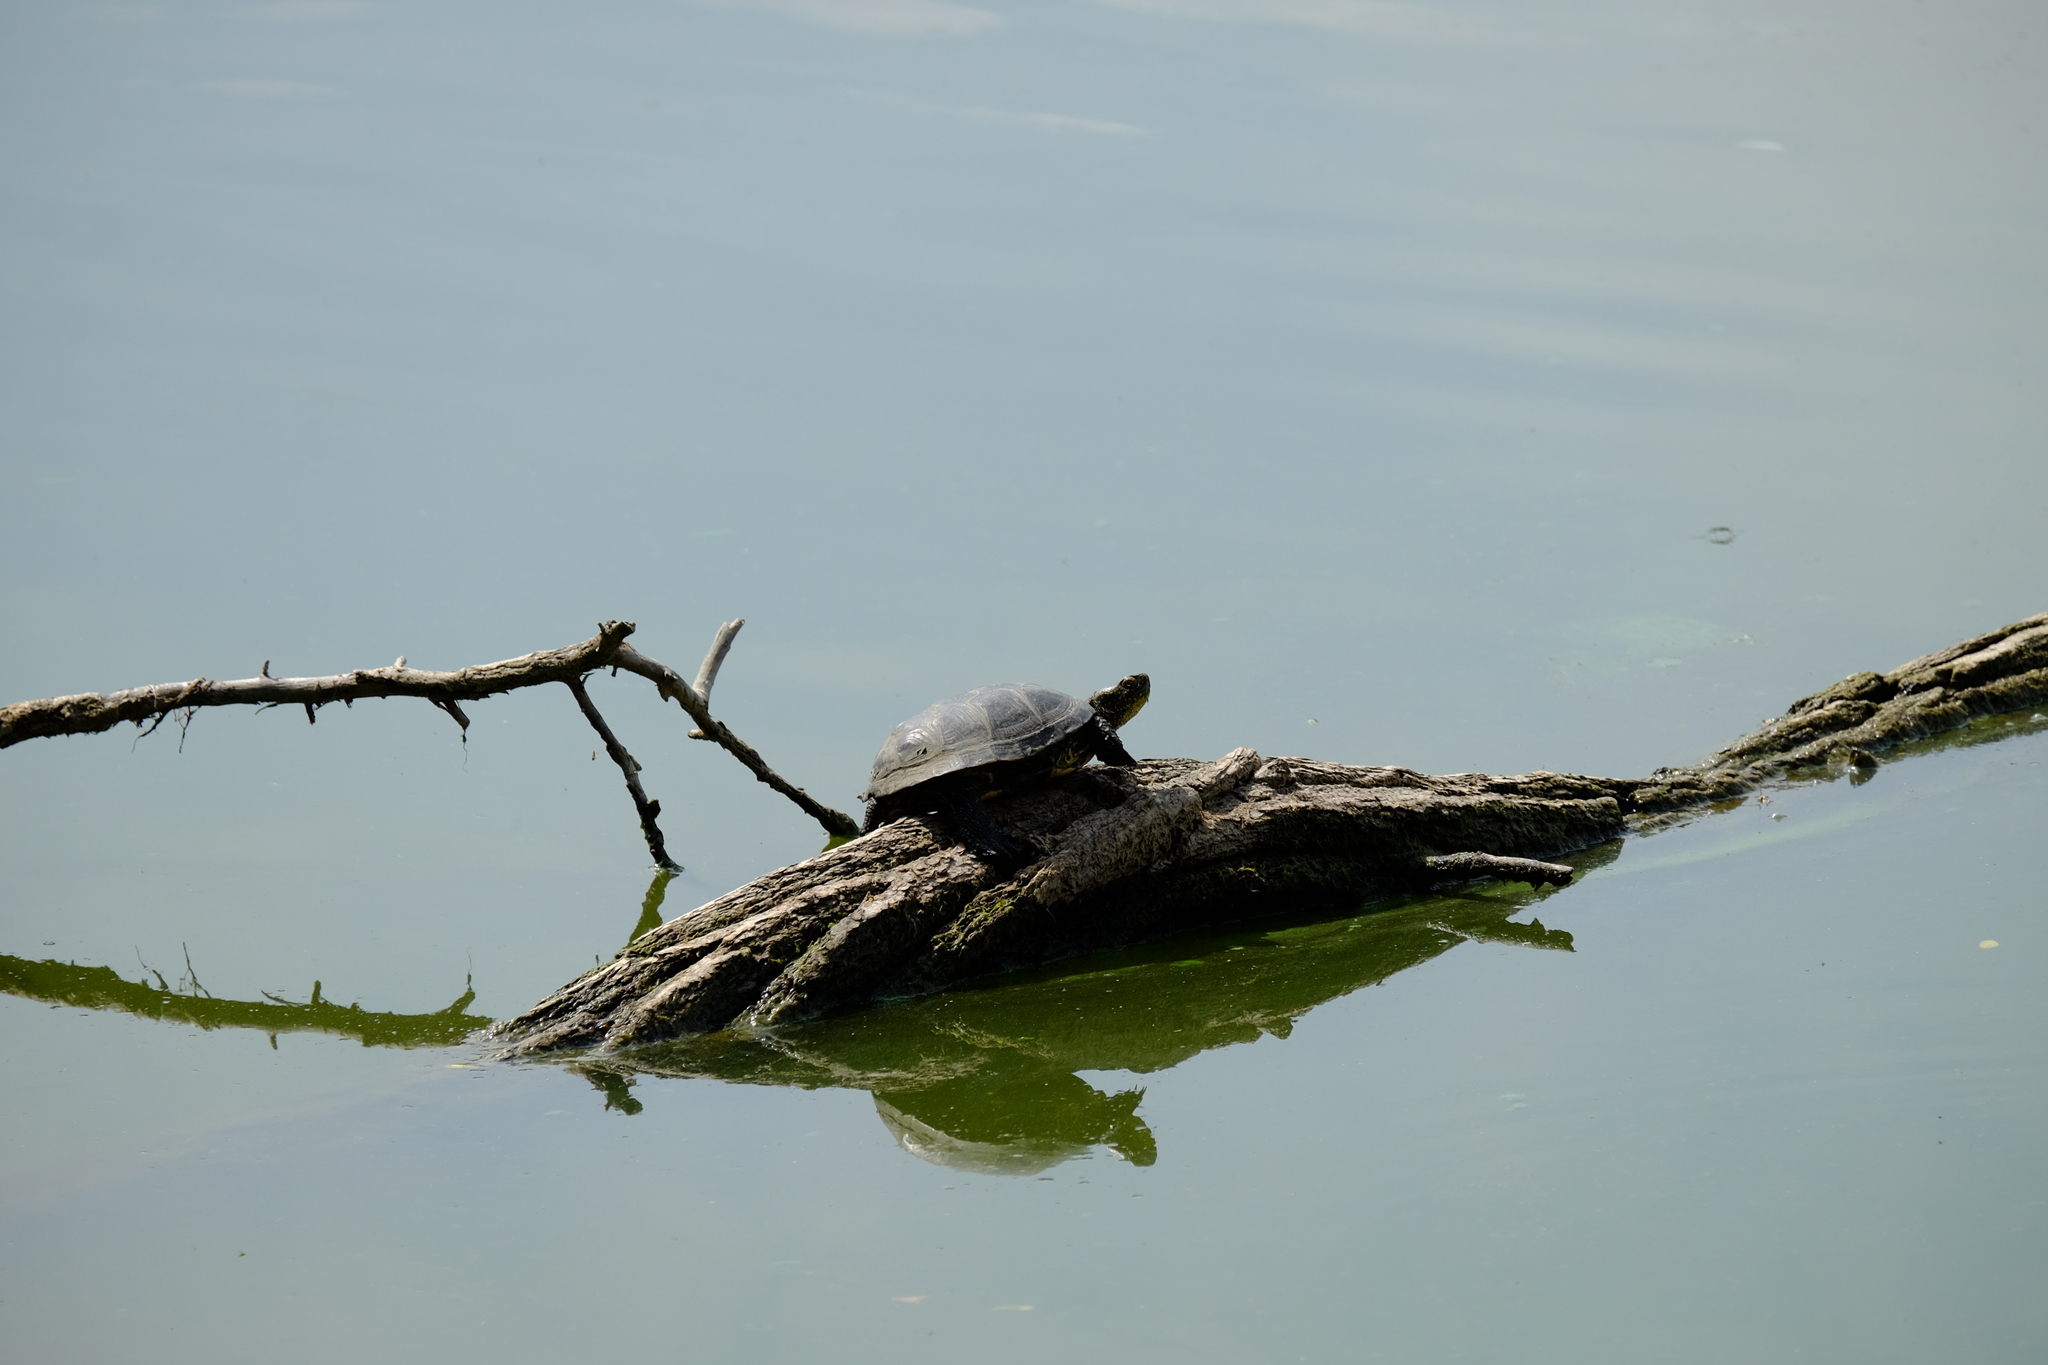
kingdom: Animalia
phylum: Chordata
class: Testudines
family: Emydidae
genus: Emys
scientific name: Emys orbicularis
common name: European pond turtle
